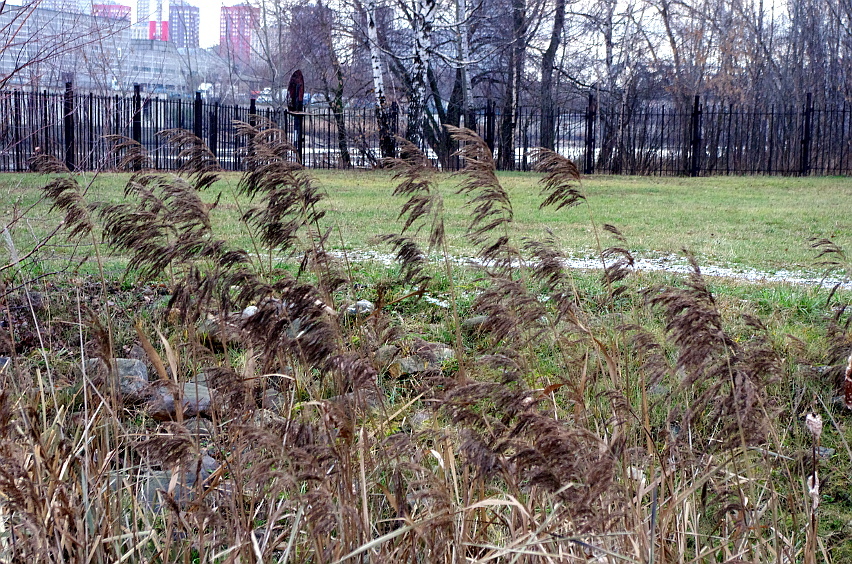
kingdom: Plantae
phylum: Tracheophyta
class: Liliopsida
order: Poales
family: Poaceae
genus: Phragmites
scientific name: Phragmites australis
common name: Common reed
